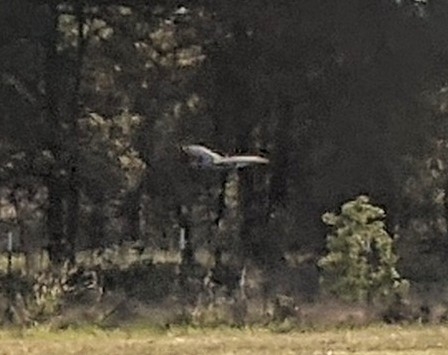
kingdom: Animalia
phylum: Chordata
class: Aves
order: Pelecaniformes
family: Ardeidae
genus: Ardea
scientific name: Ardea herodias
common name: Great blue heron
